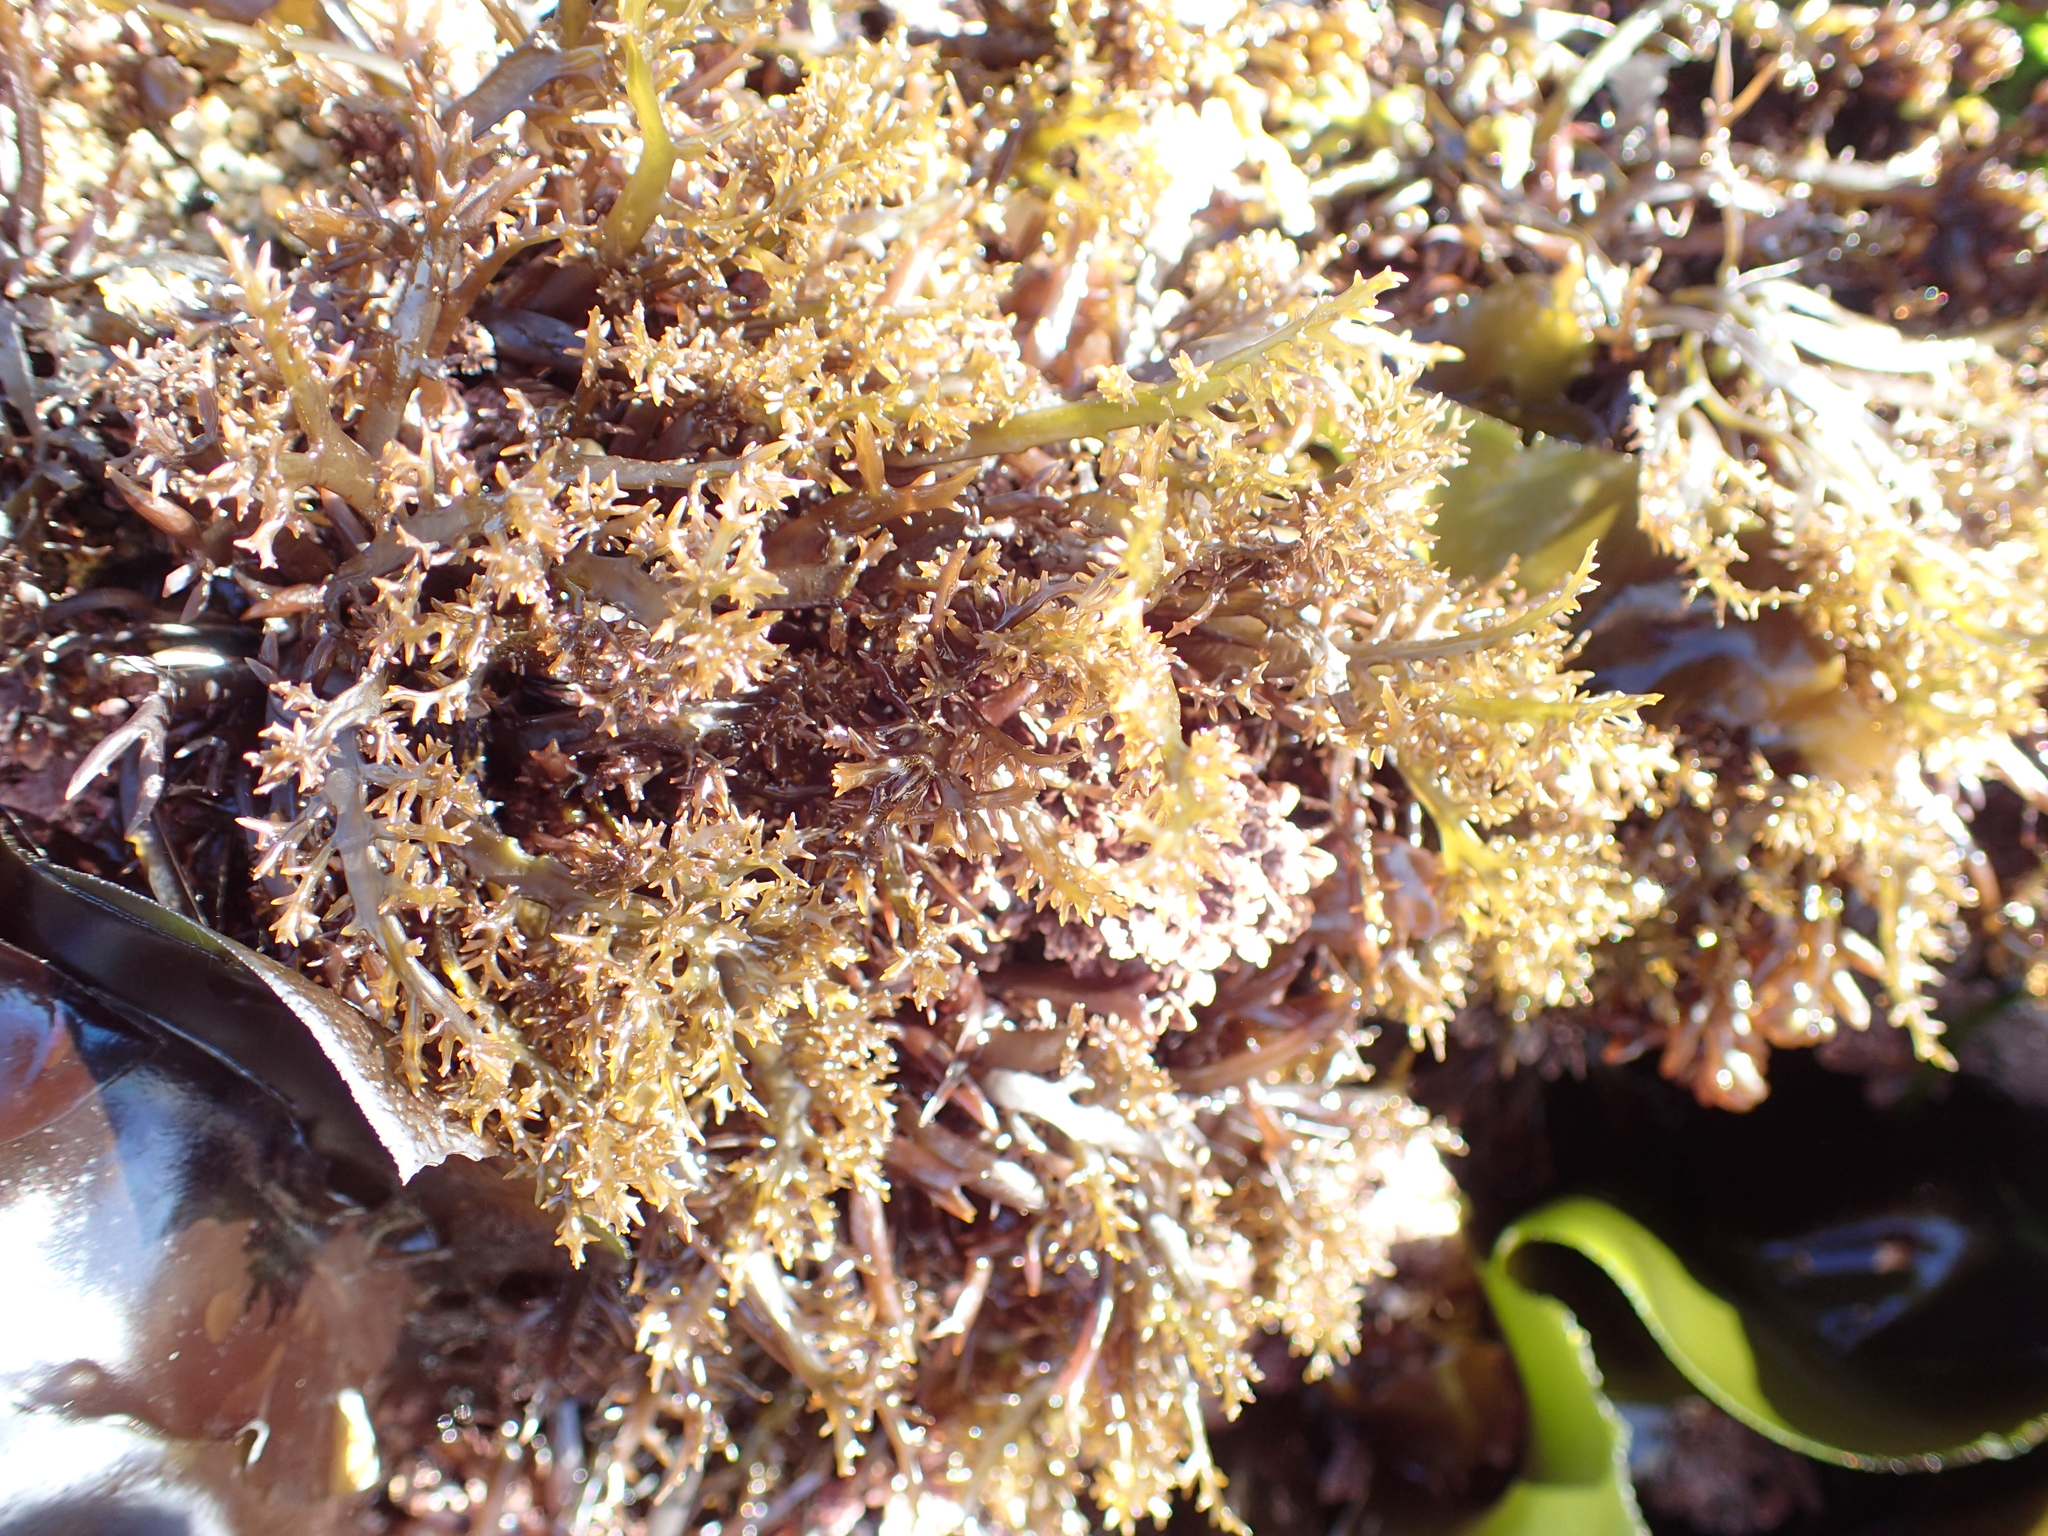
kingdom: Plantae
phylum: Rhodophyta
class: Florideophyceae
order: Gigartinales
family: Gigartinaceae
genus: Chondracanthus
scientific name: Chondracanthus canaliculatus
